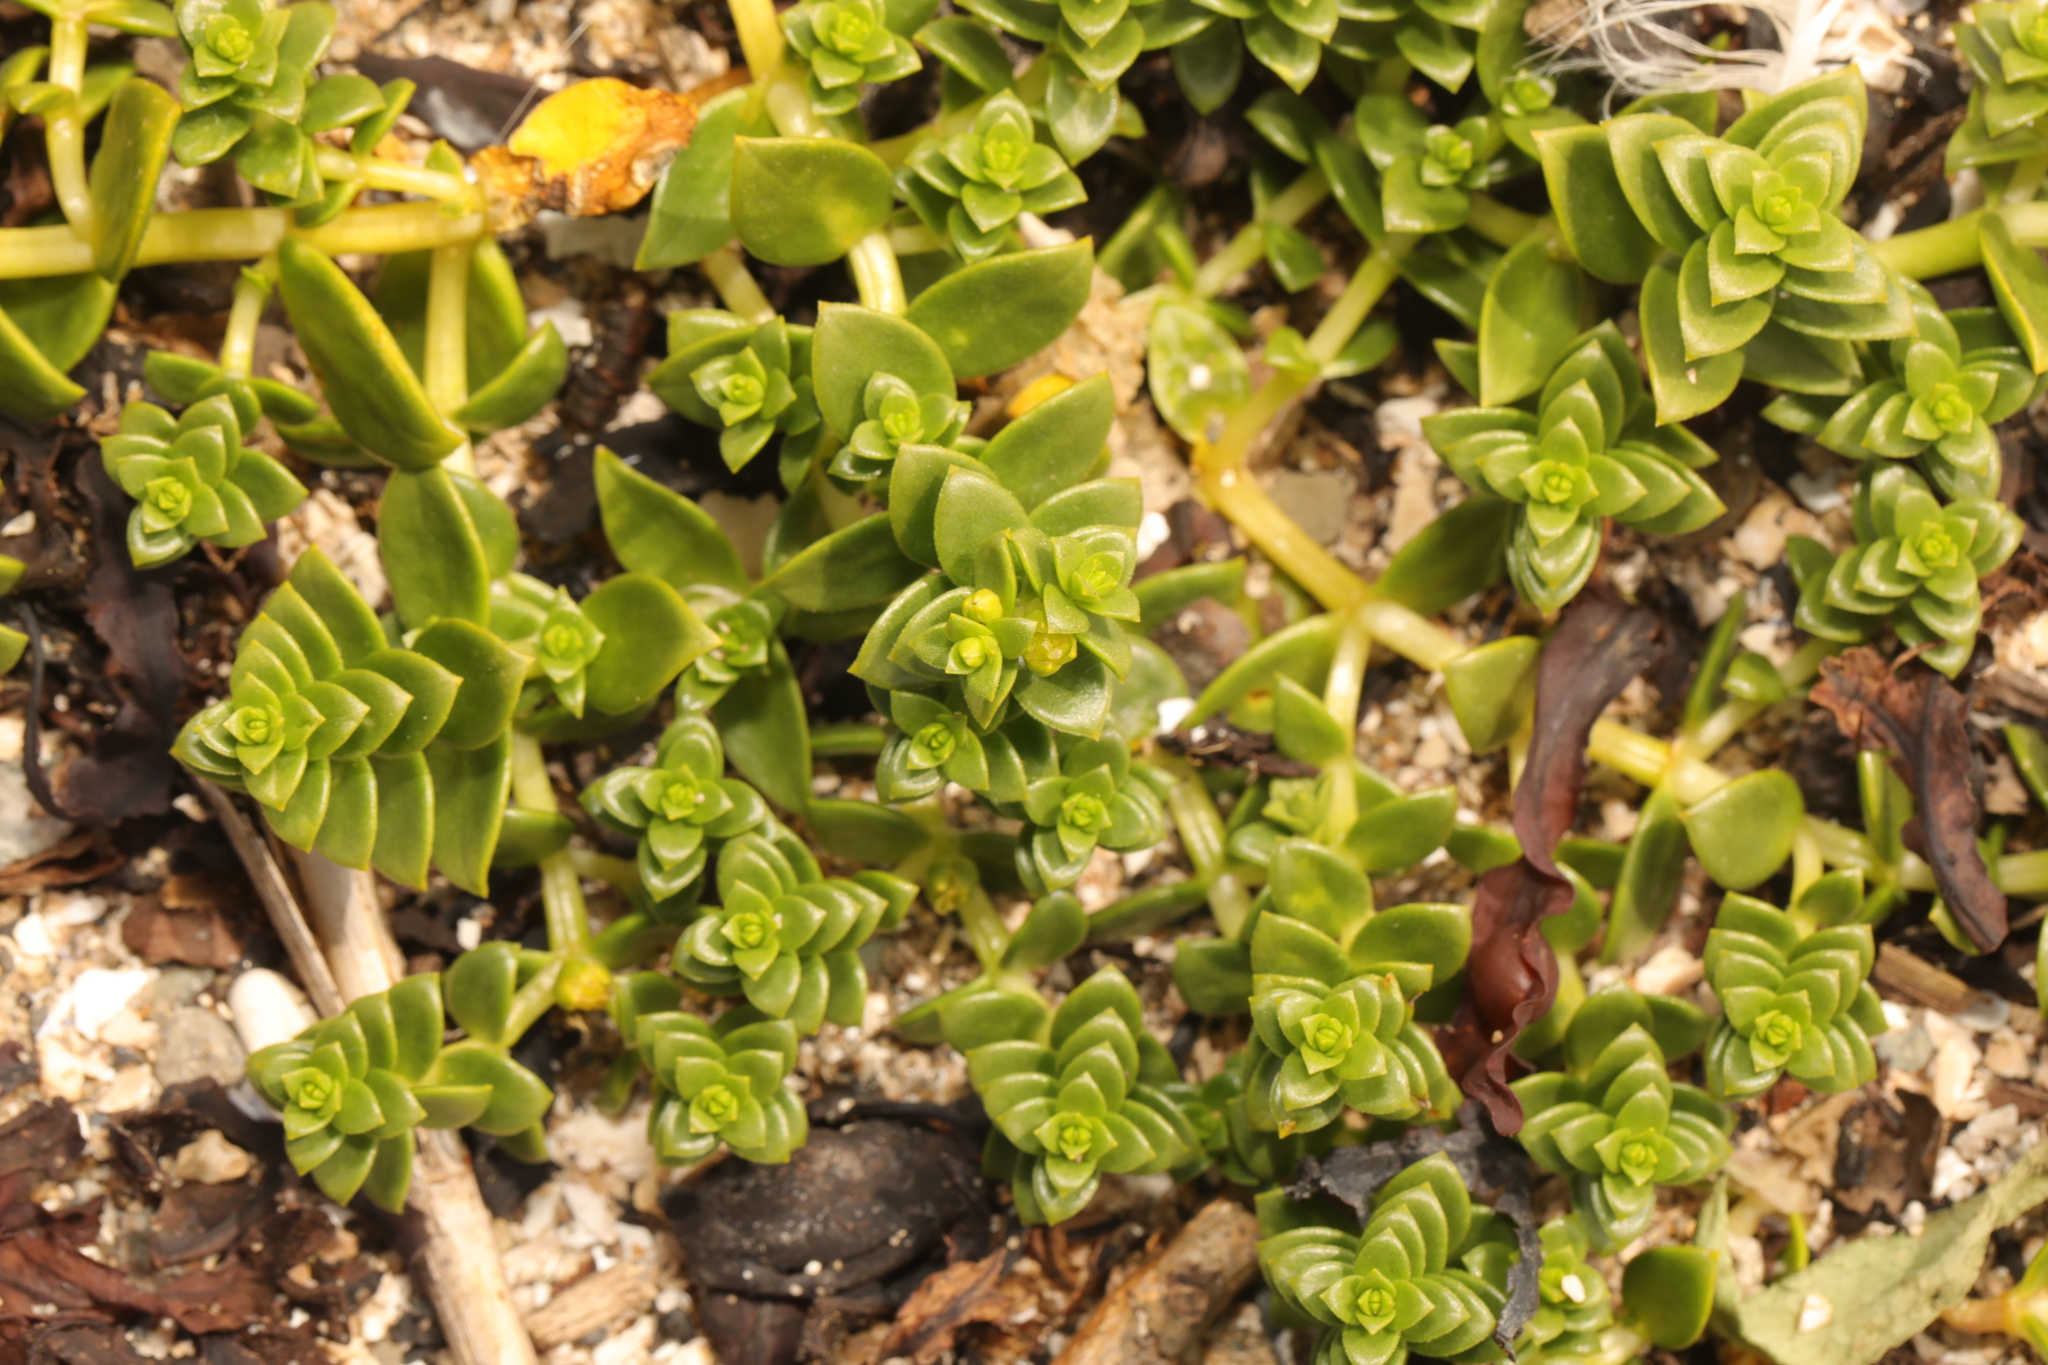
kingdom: Plantae
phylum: Tracheophyta
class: Magnoliopsida
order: Caryophyllales
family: Caryophyllaceae
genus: Honckenya
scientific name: Honckenya peploides
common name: Sea sandwort
